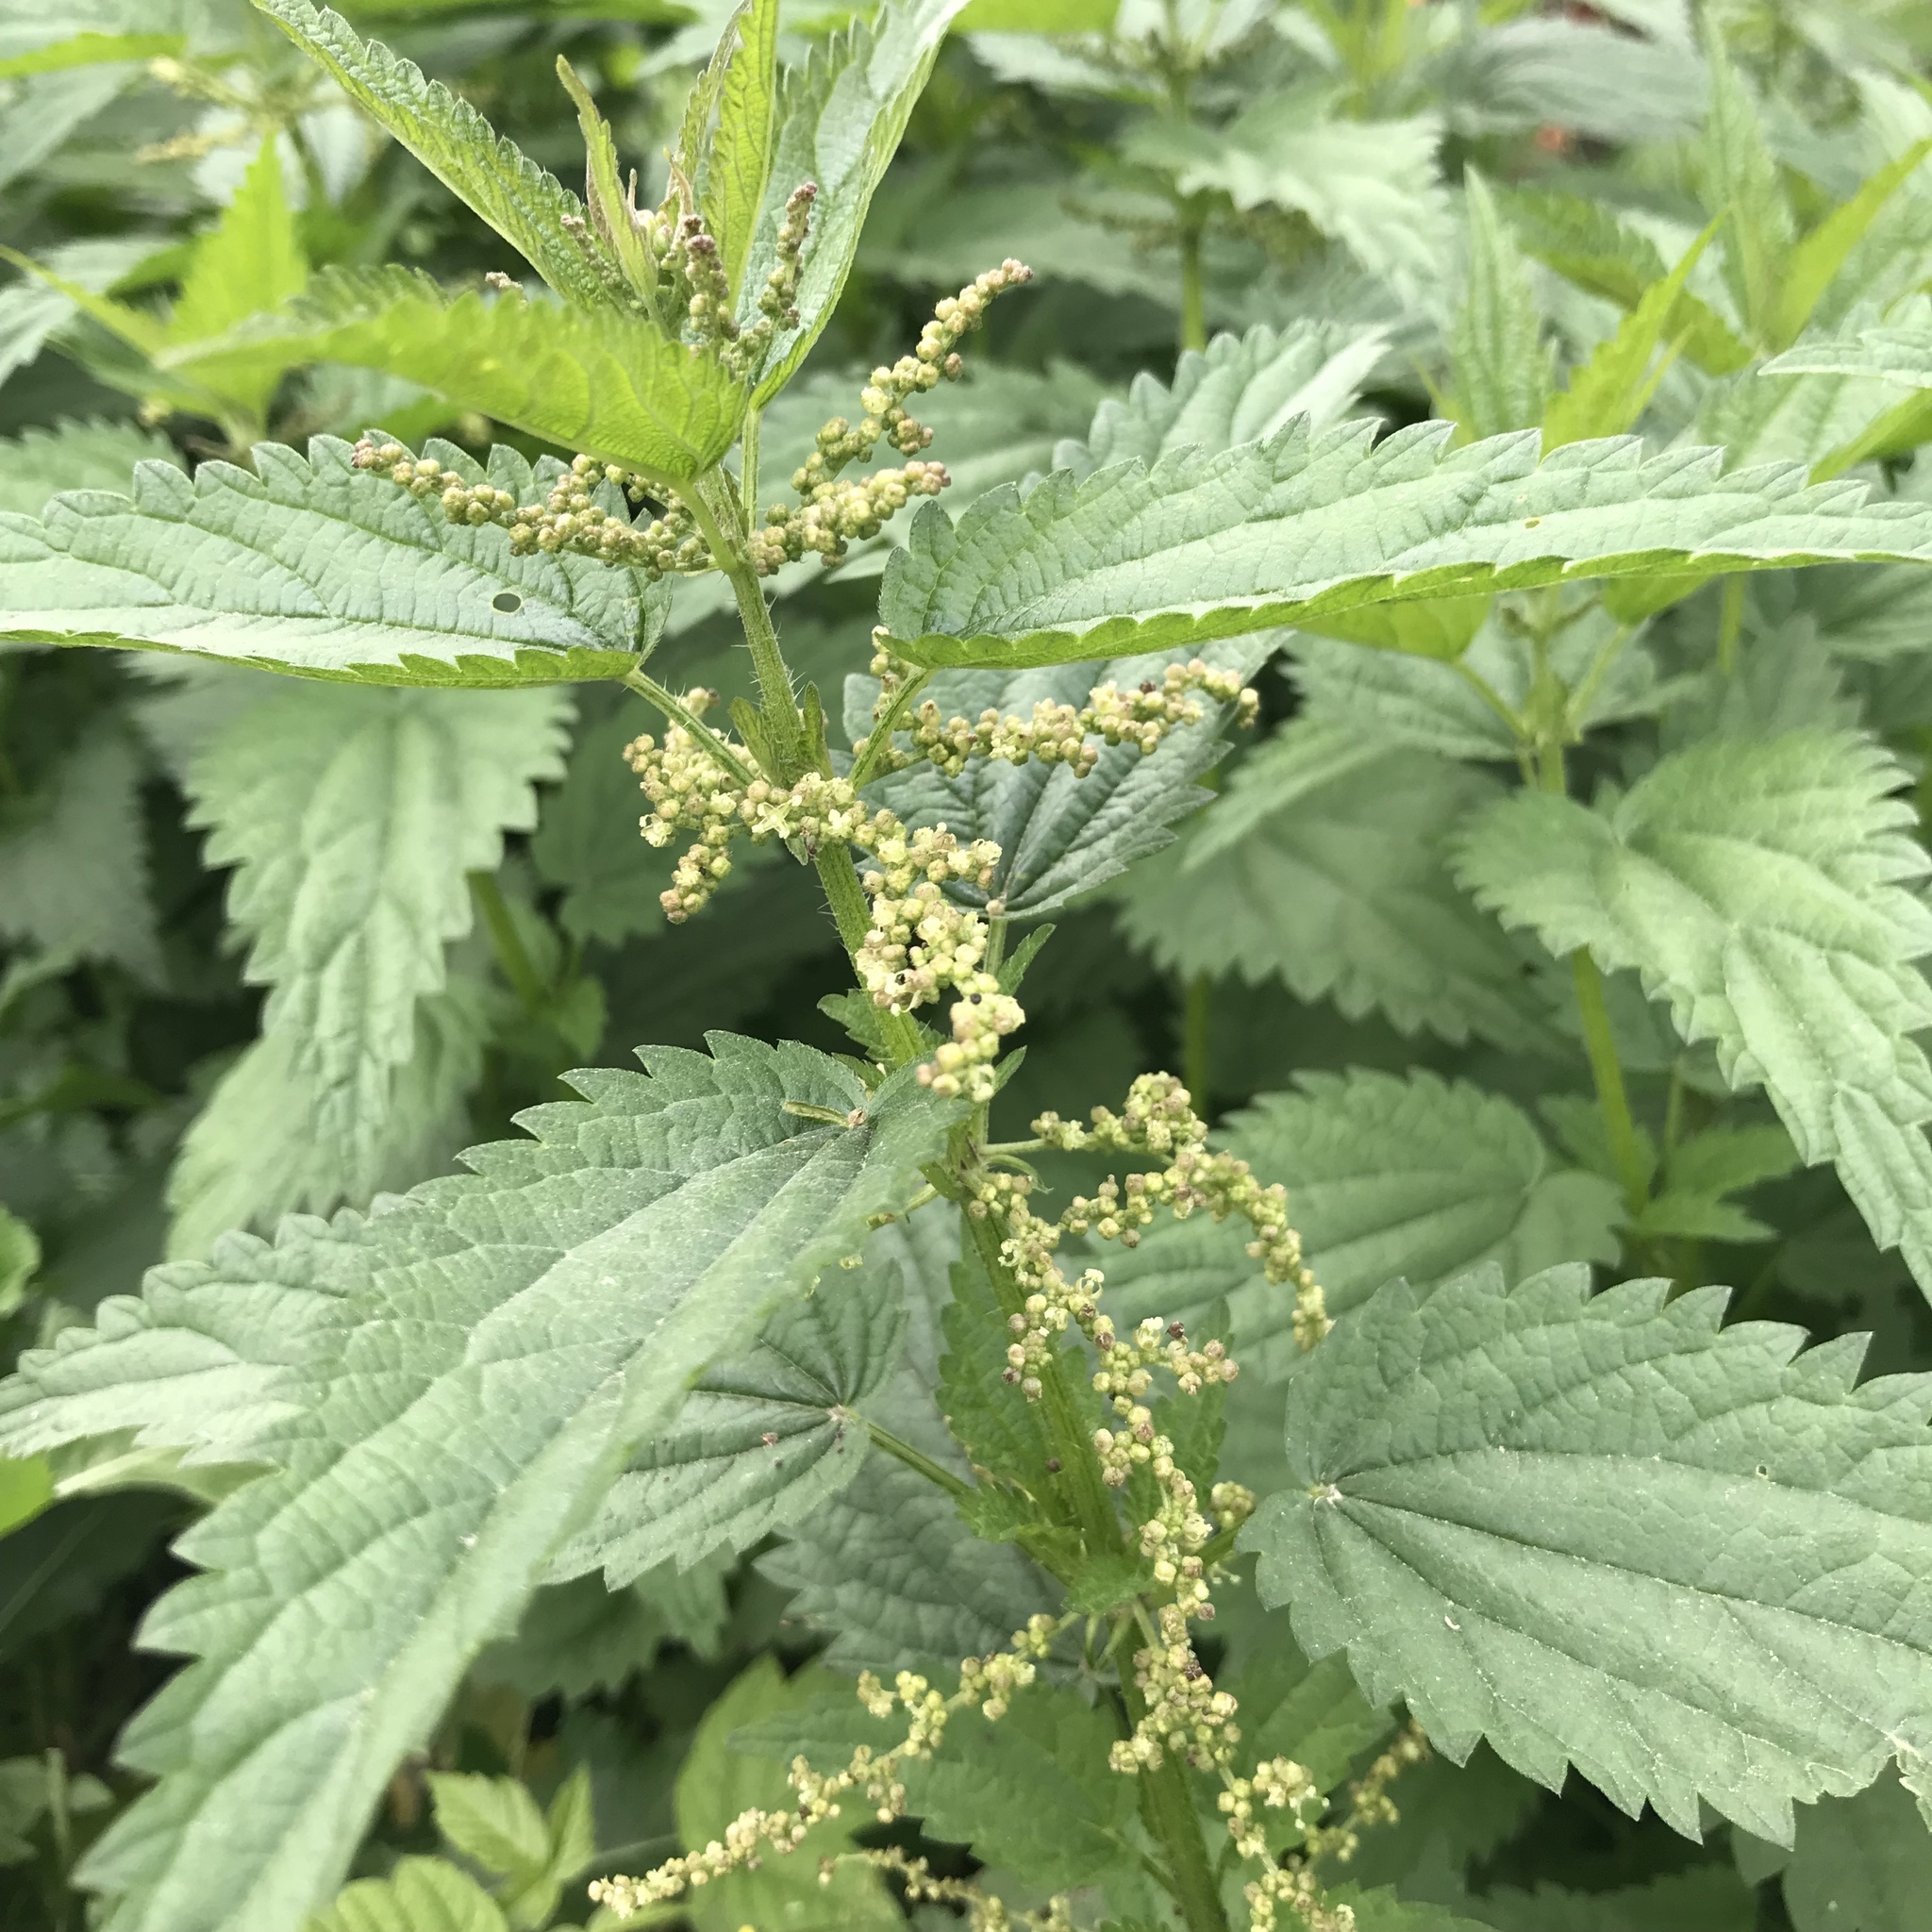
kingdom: Plantae
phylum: Tracheophyta
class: Magnoliopsida
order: Rosales
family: Urticaceae
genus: Urtica
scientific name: Urtica dioica
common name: Common nettle
